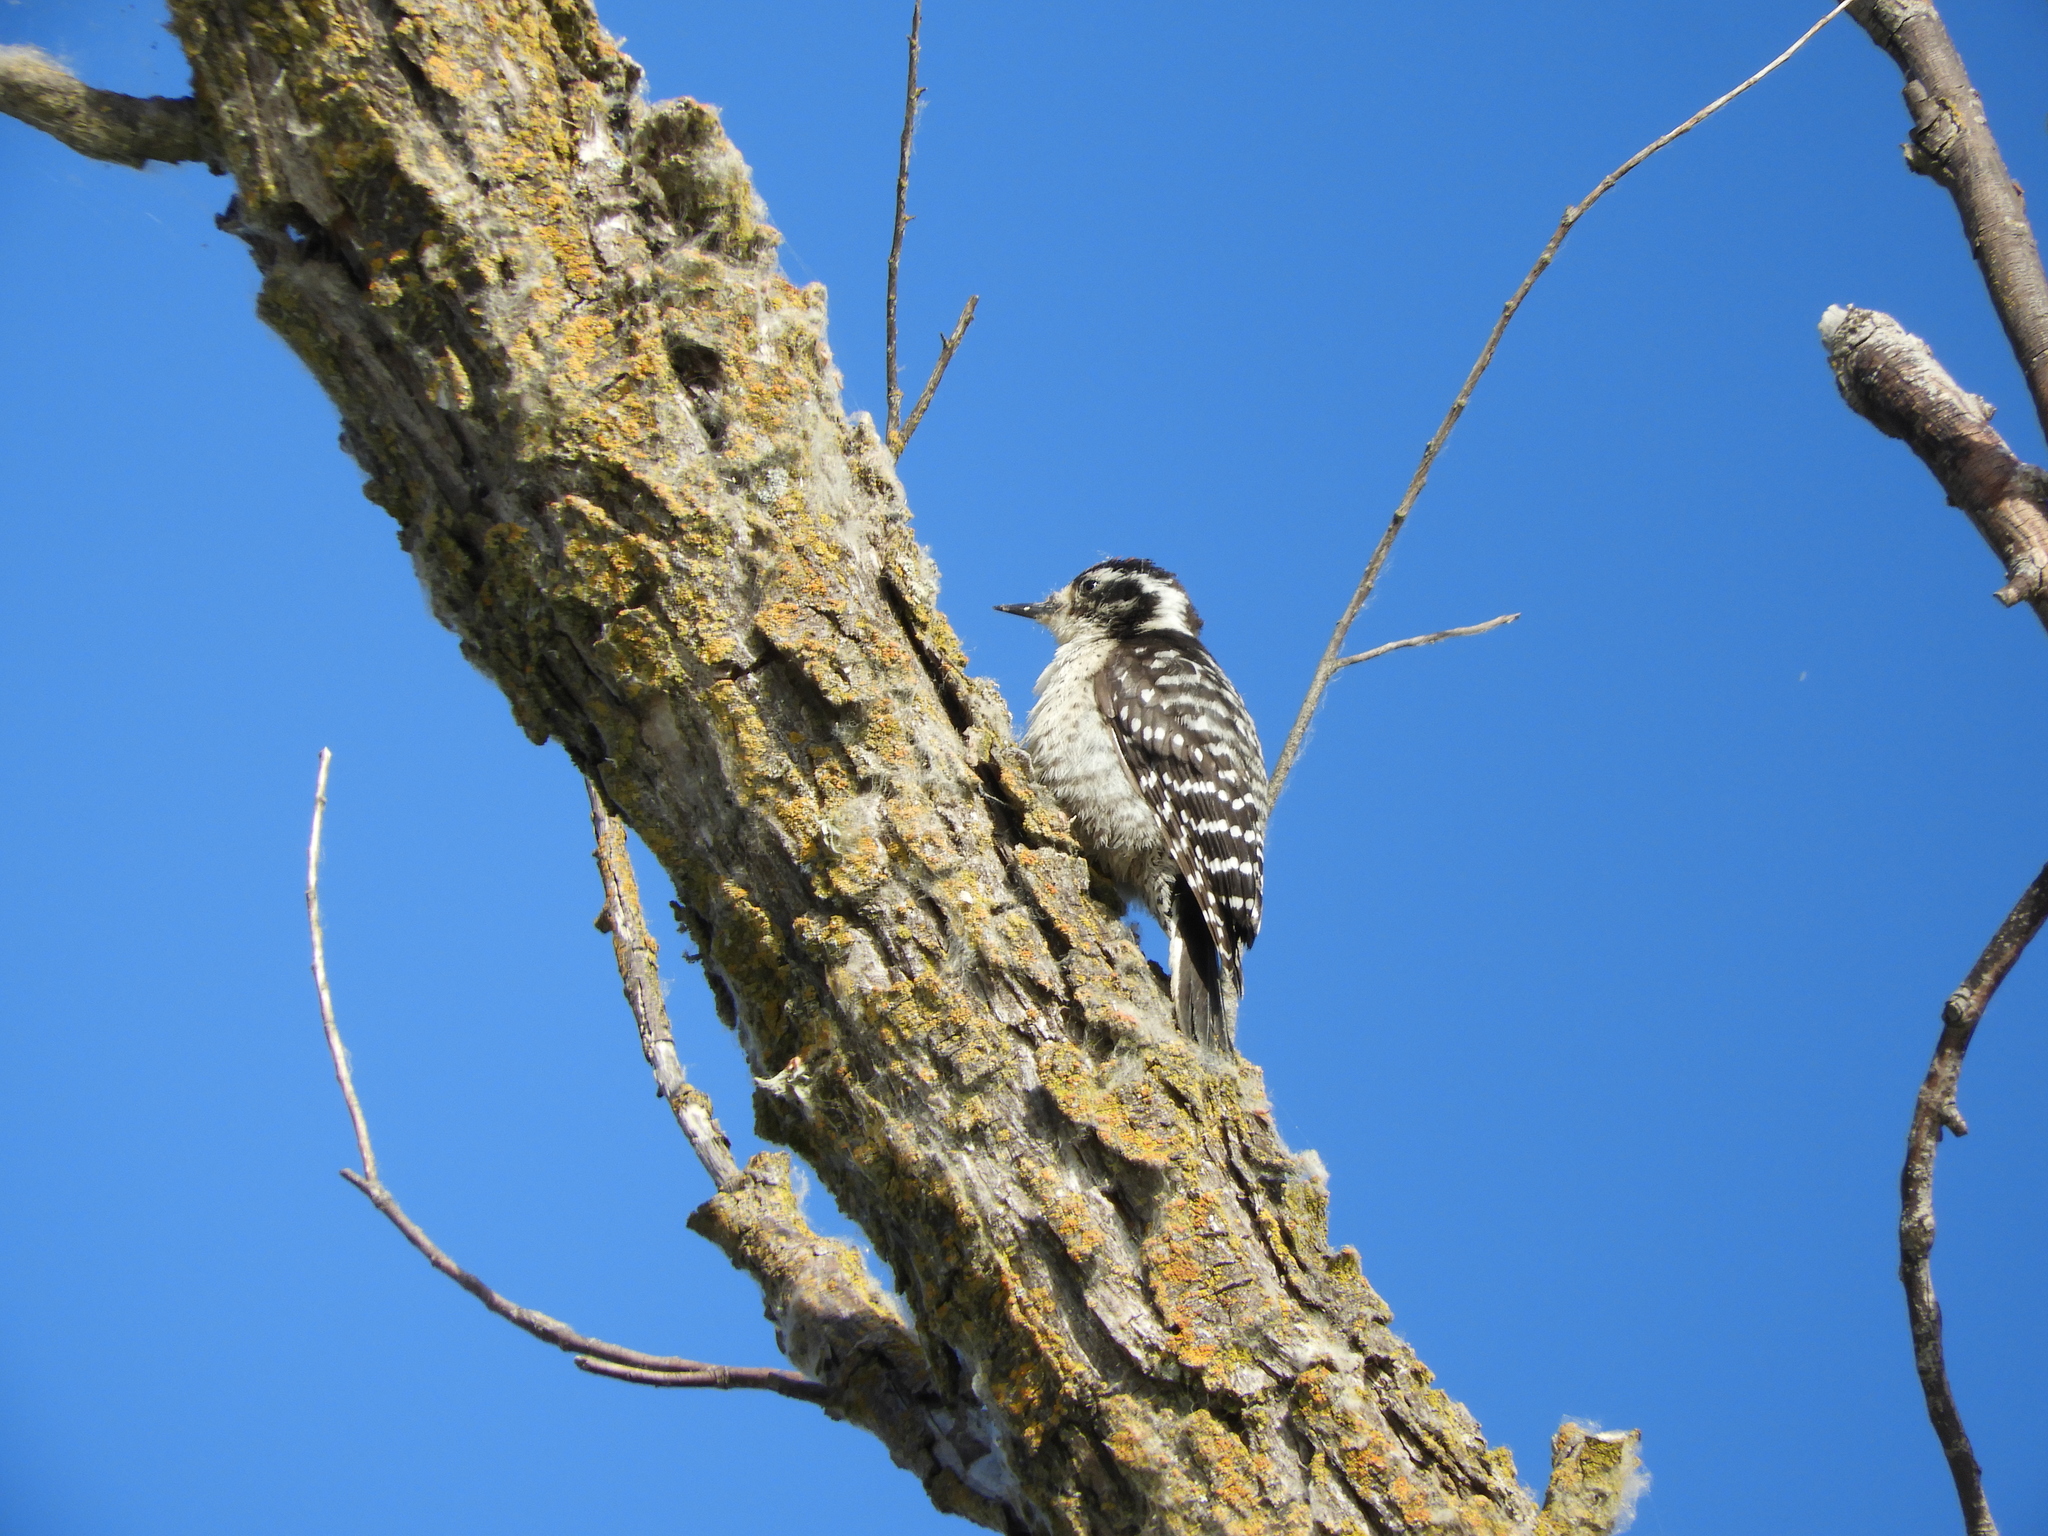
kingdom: Animalia
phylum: Chordata
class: Aves
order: Piciformes
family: Picidae
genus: Dryobates
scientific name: Dryobates nuttallii
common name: Nuttall's woodpecker
